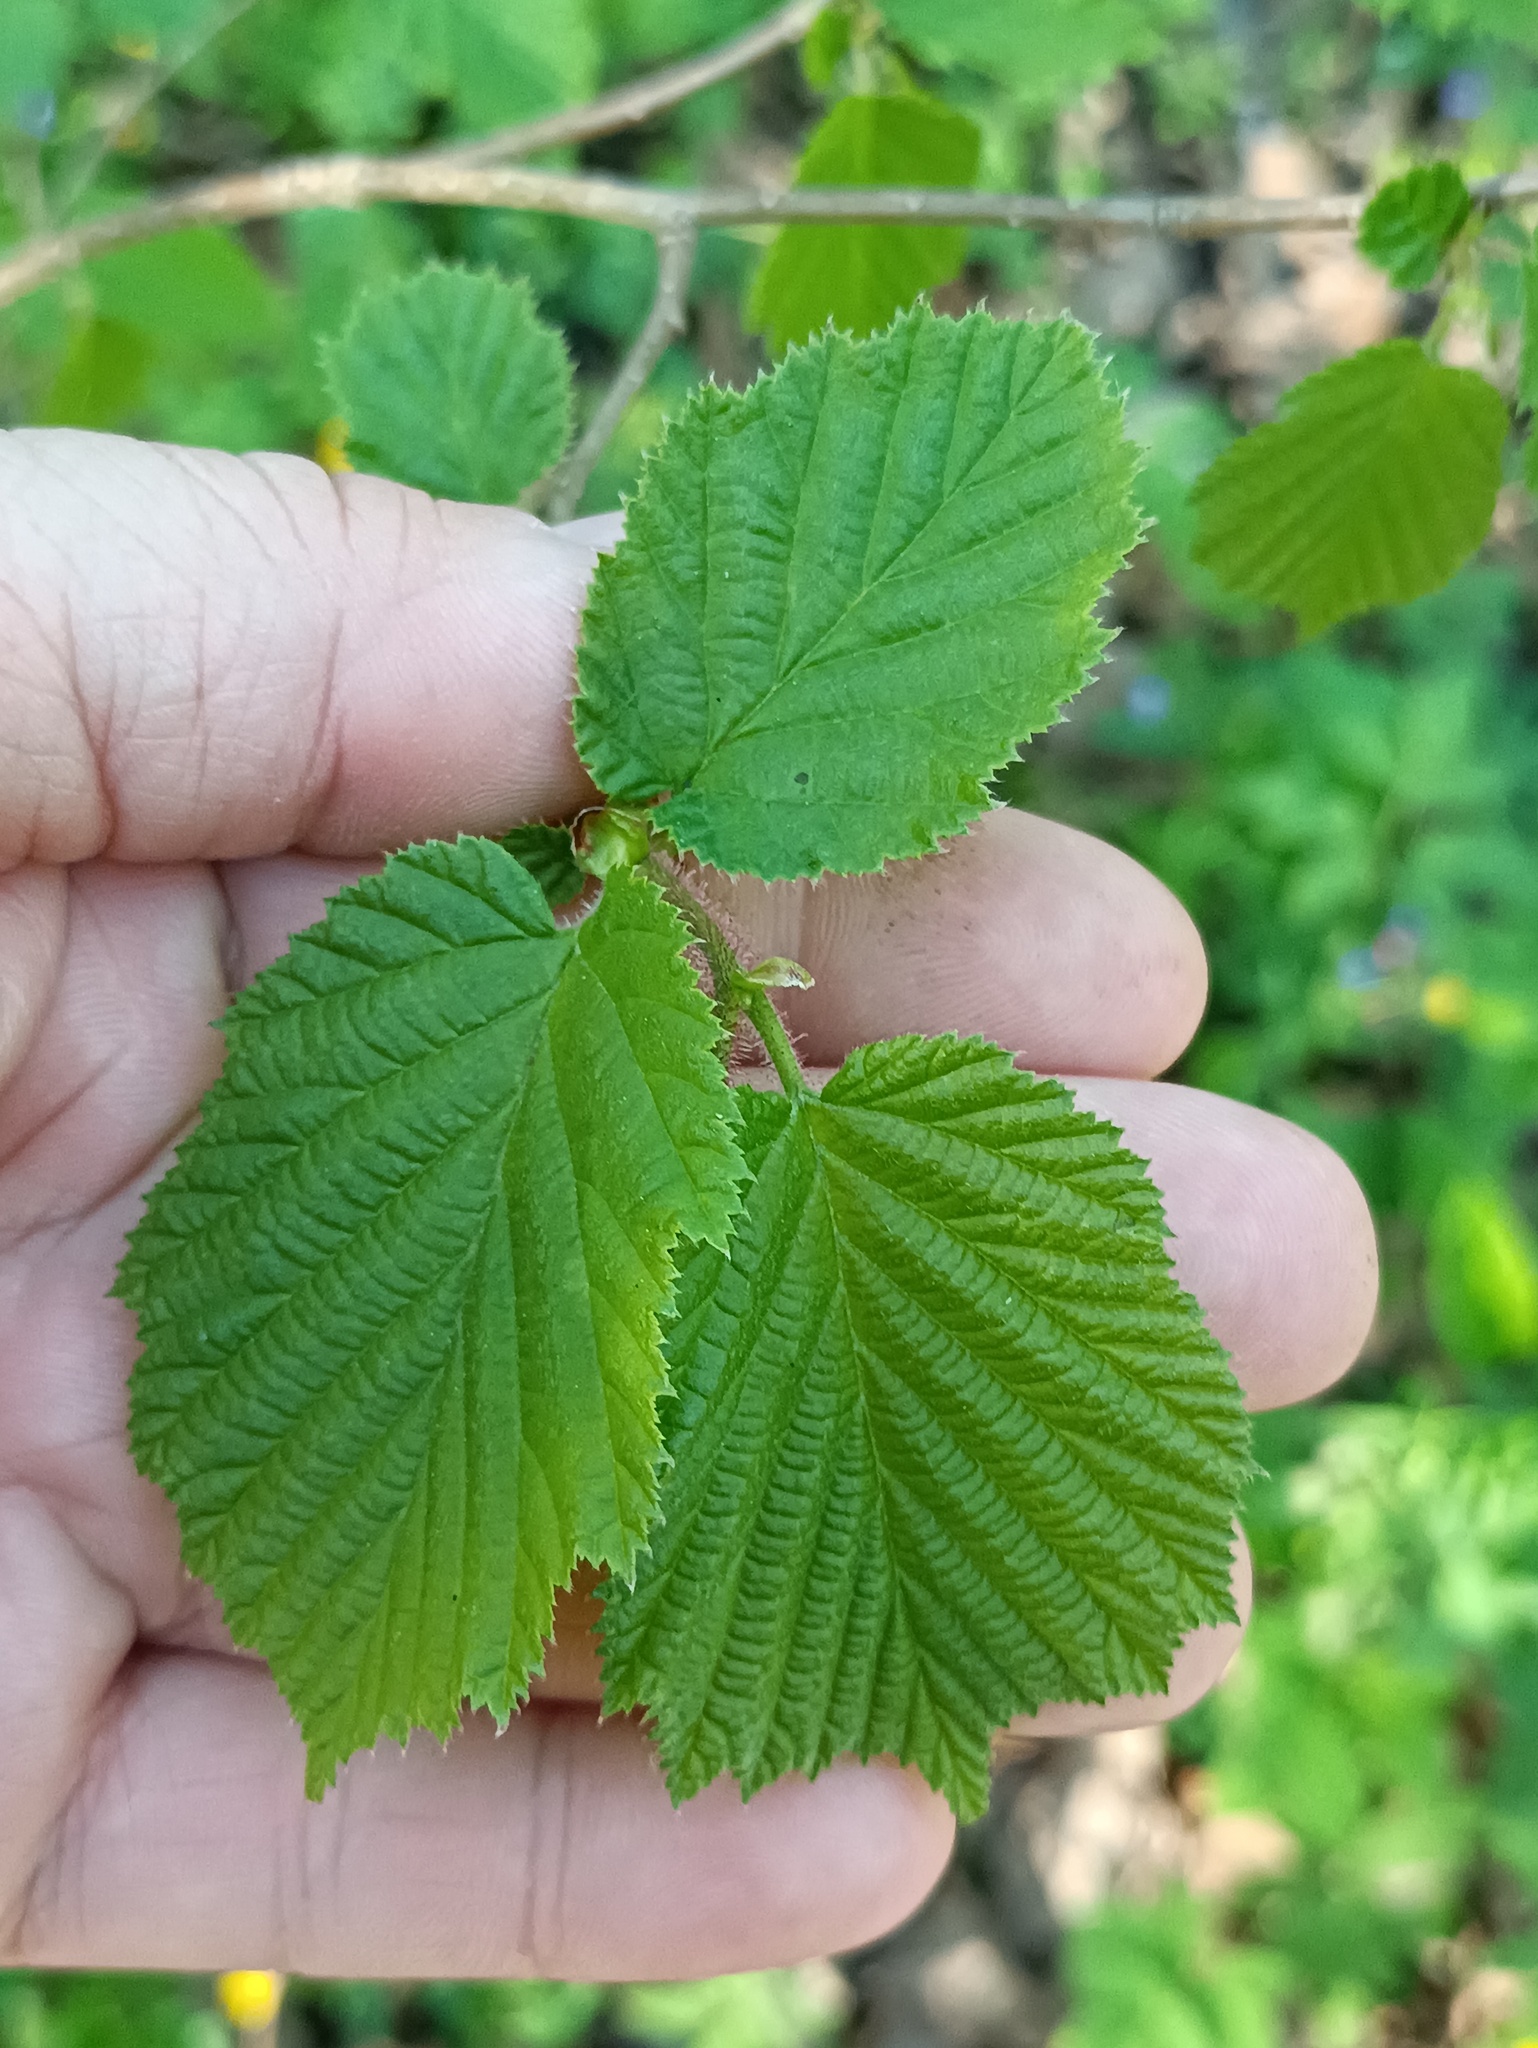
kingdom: Plantae
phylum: Tracheophyta
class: Magnoliopsida
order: Fagales
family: Betulaceae
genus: Corylus
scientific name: Corylus avellana
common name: European hazel
